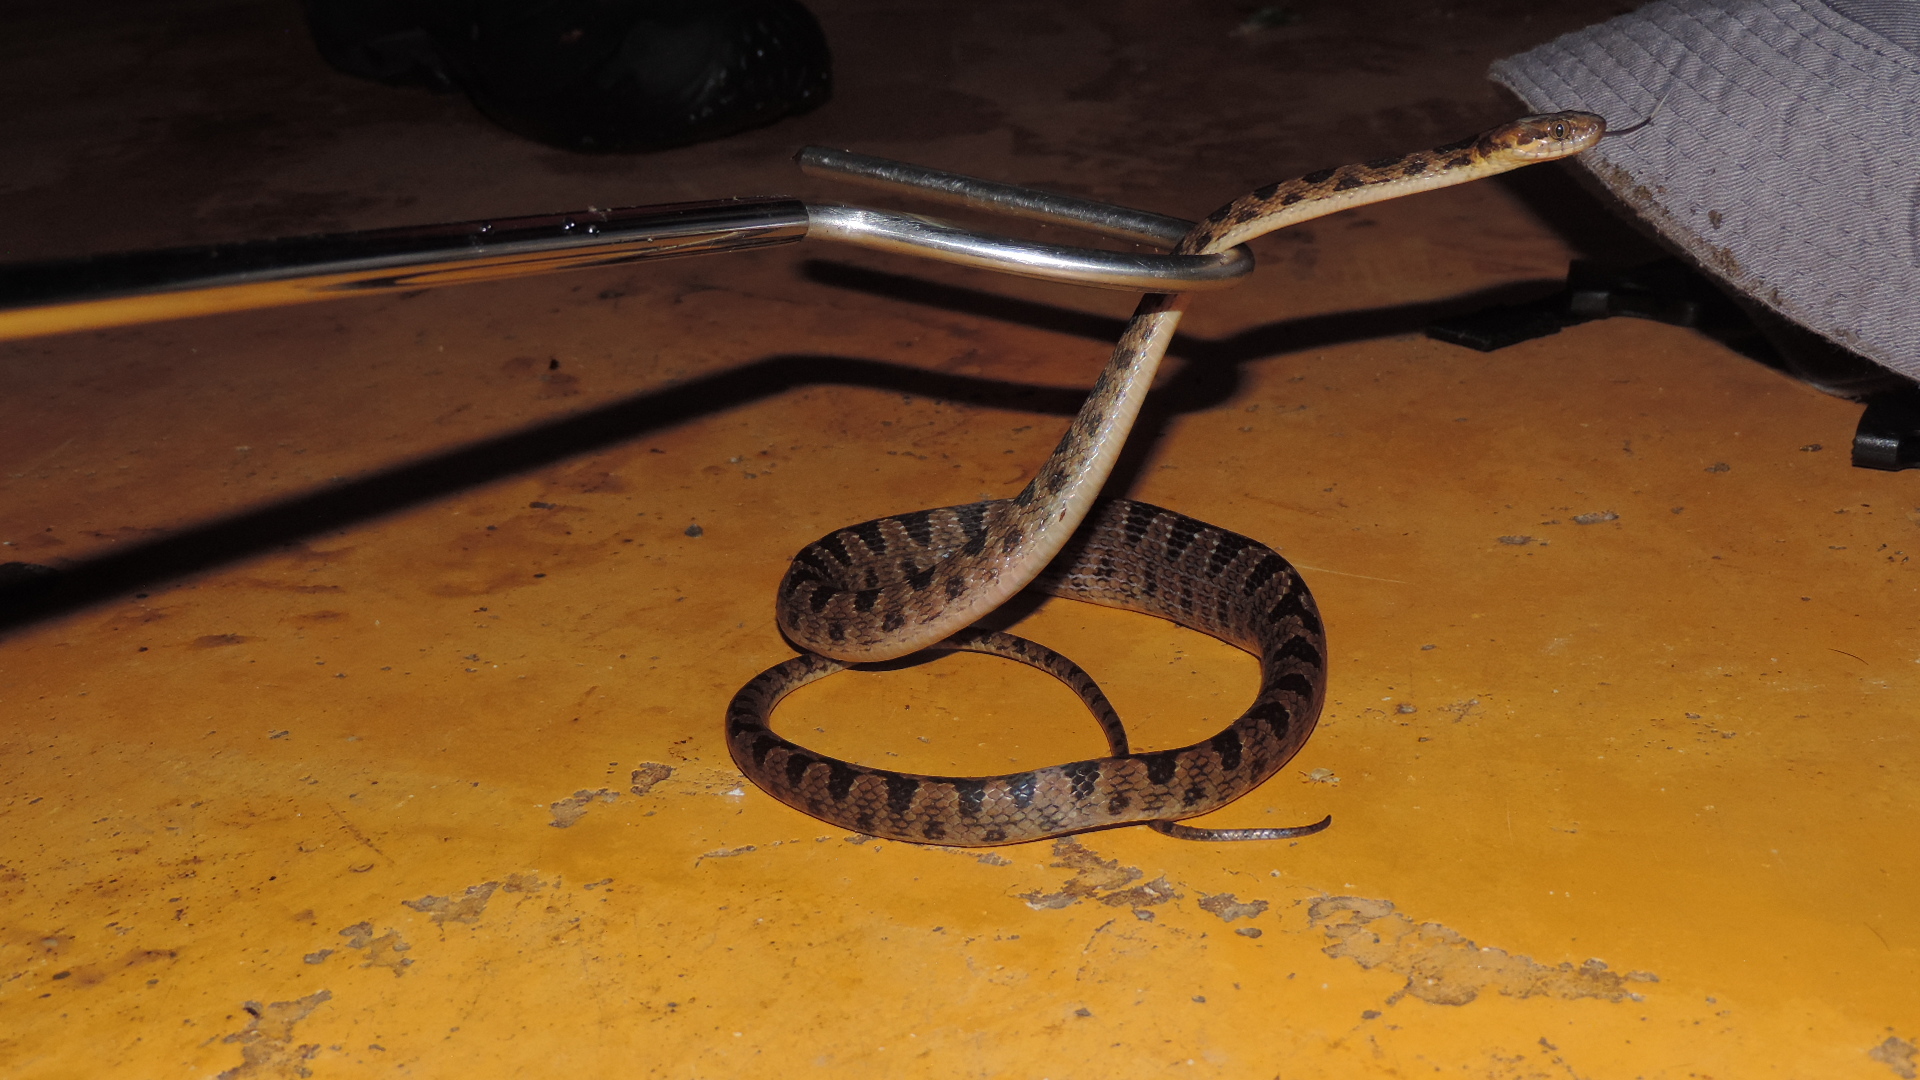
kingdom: Animalia
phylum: Chordata
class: Squamata
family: Colubridae
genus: Leptodeira
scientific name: Leptodeira ornata
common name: Northern cat-eyed snake
